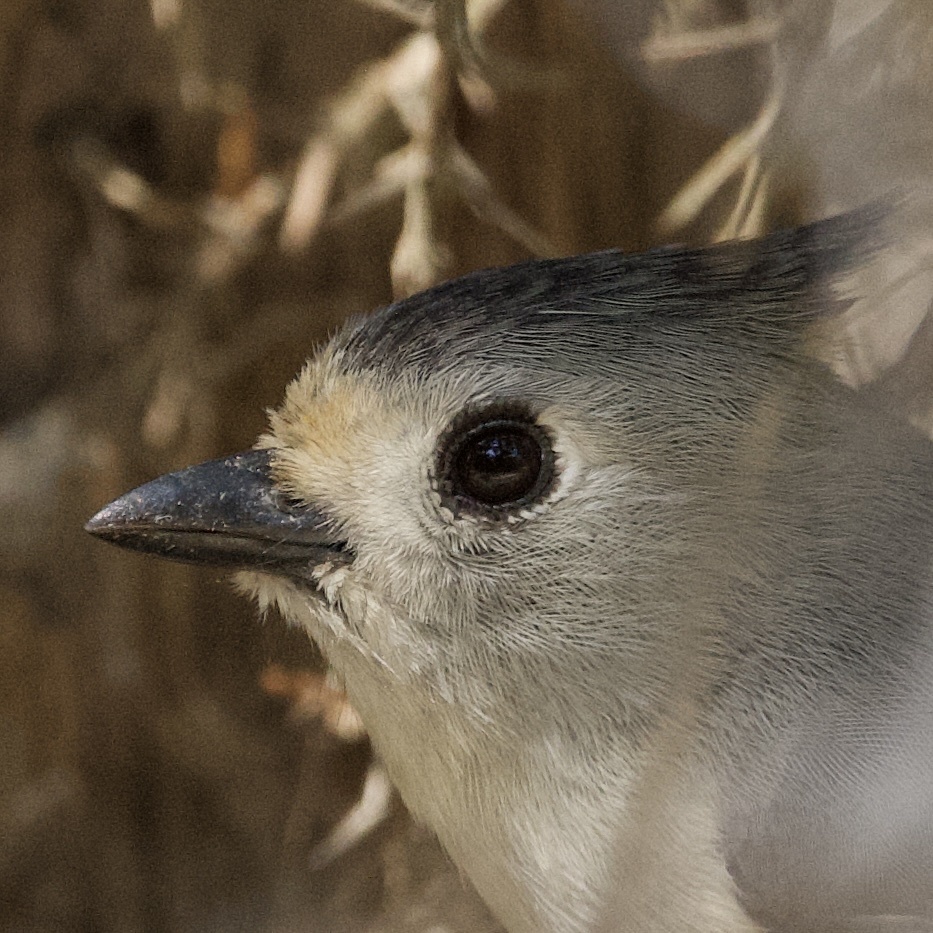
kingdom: Animalia
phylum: Chordata
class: Aves
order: Passeriformes
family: Paridae
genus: Baeolophus
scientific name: Baeolophus atricristatus
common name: Black-crested titmouse
